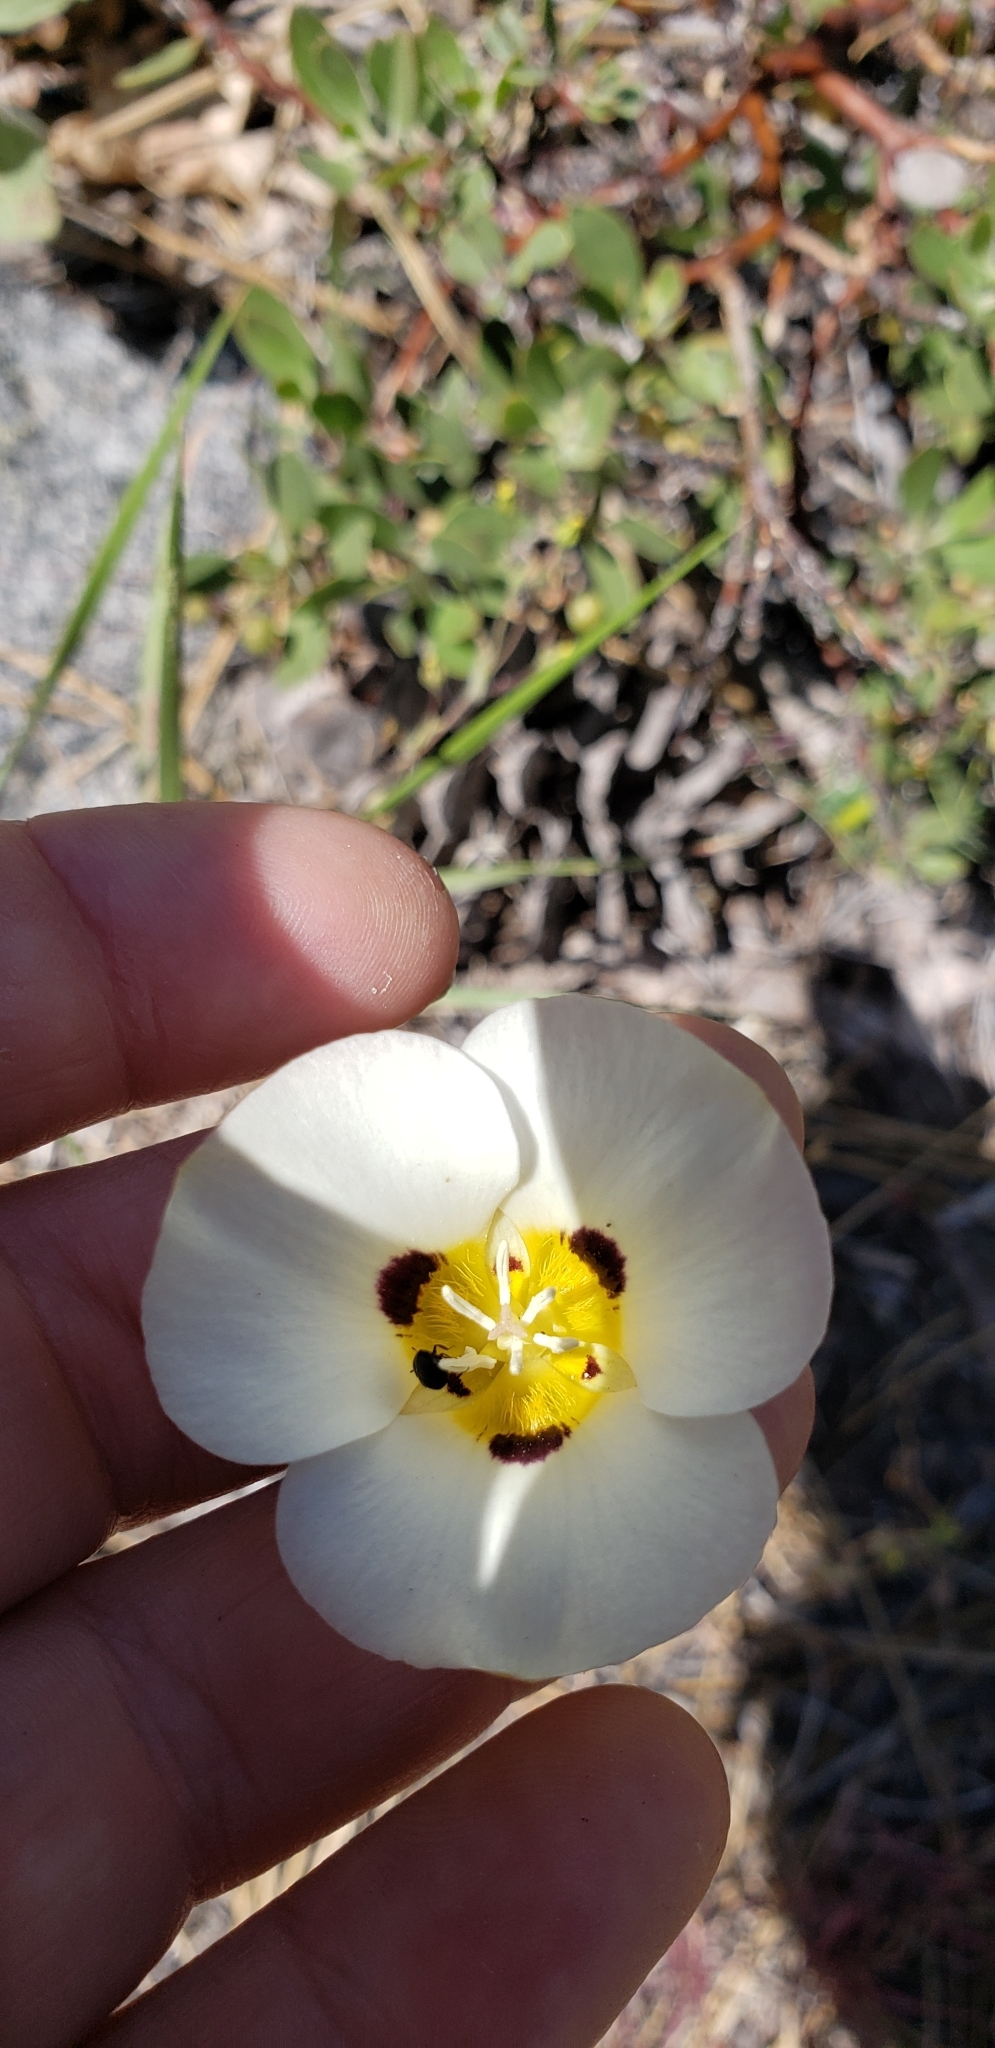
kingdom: Plantae
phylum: Tracheophyta
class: Liliopsida
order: Liliales
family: Liliaceae
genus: Calochortus
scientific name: Calochortus leichtlinii
